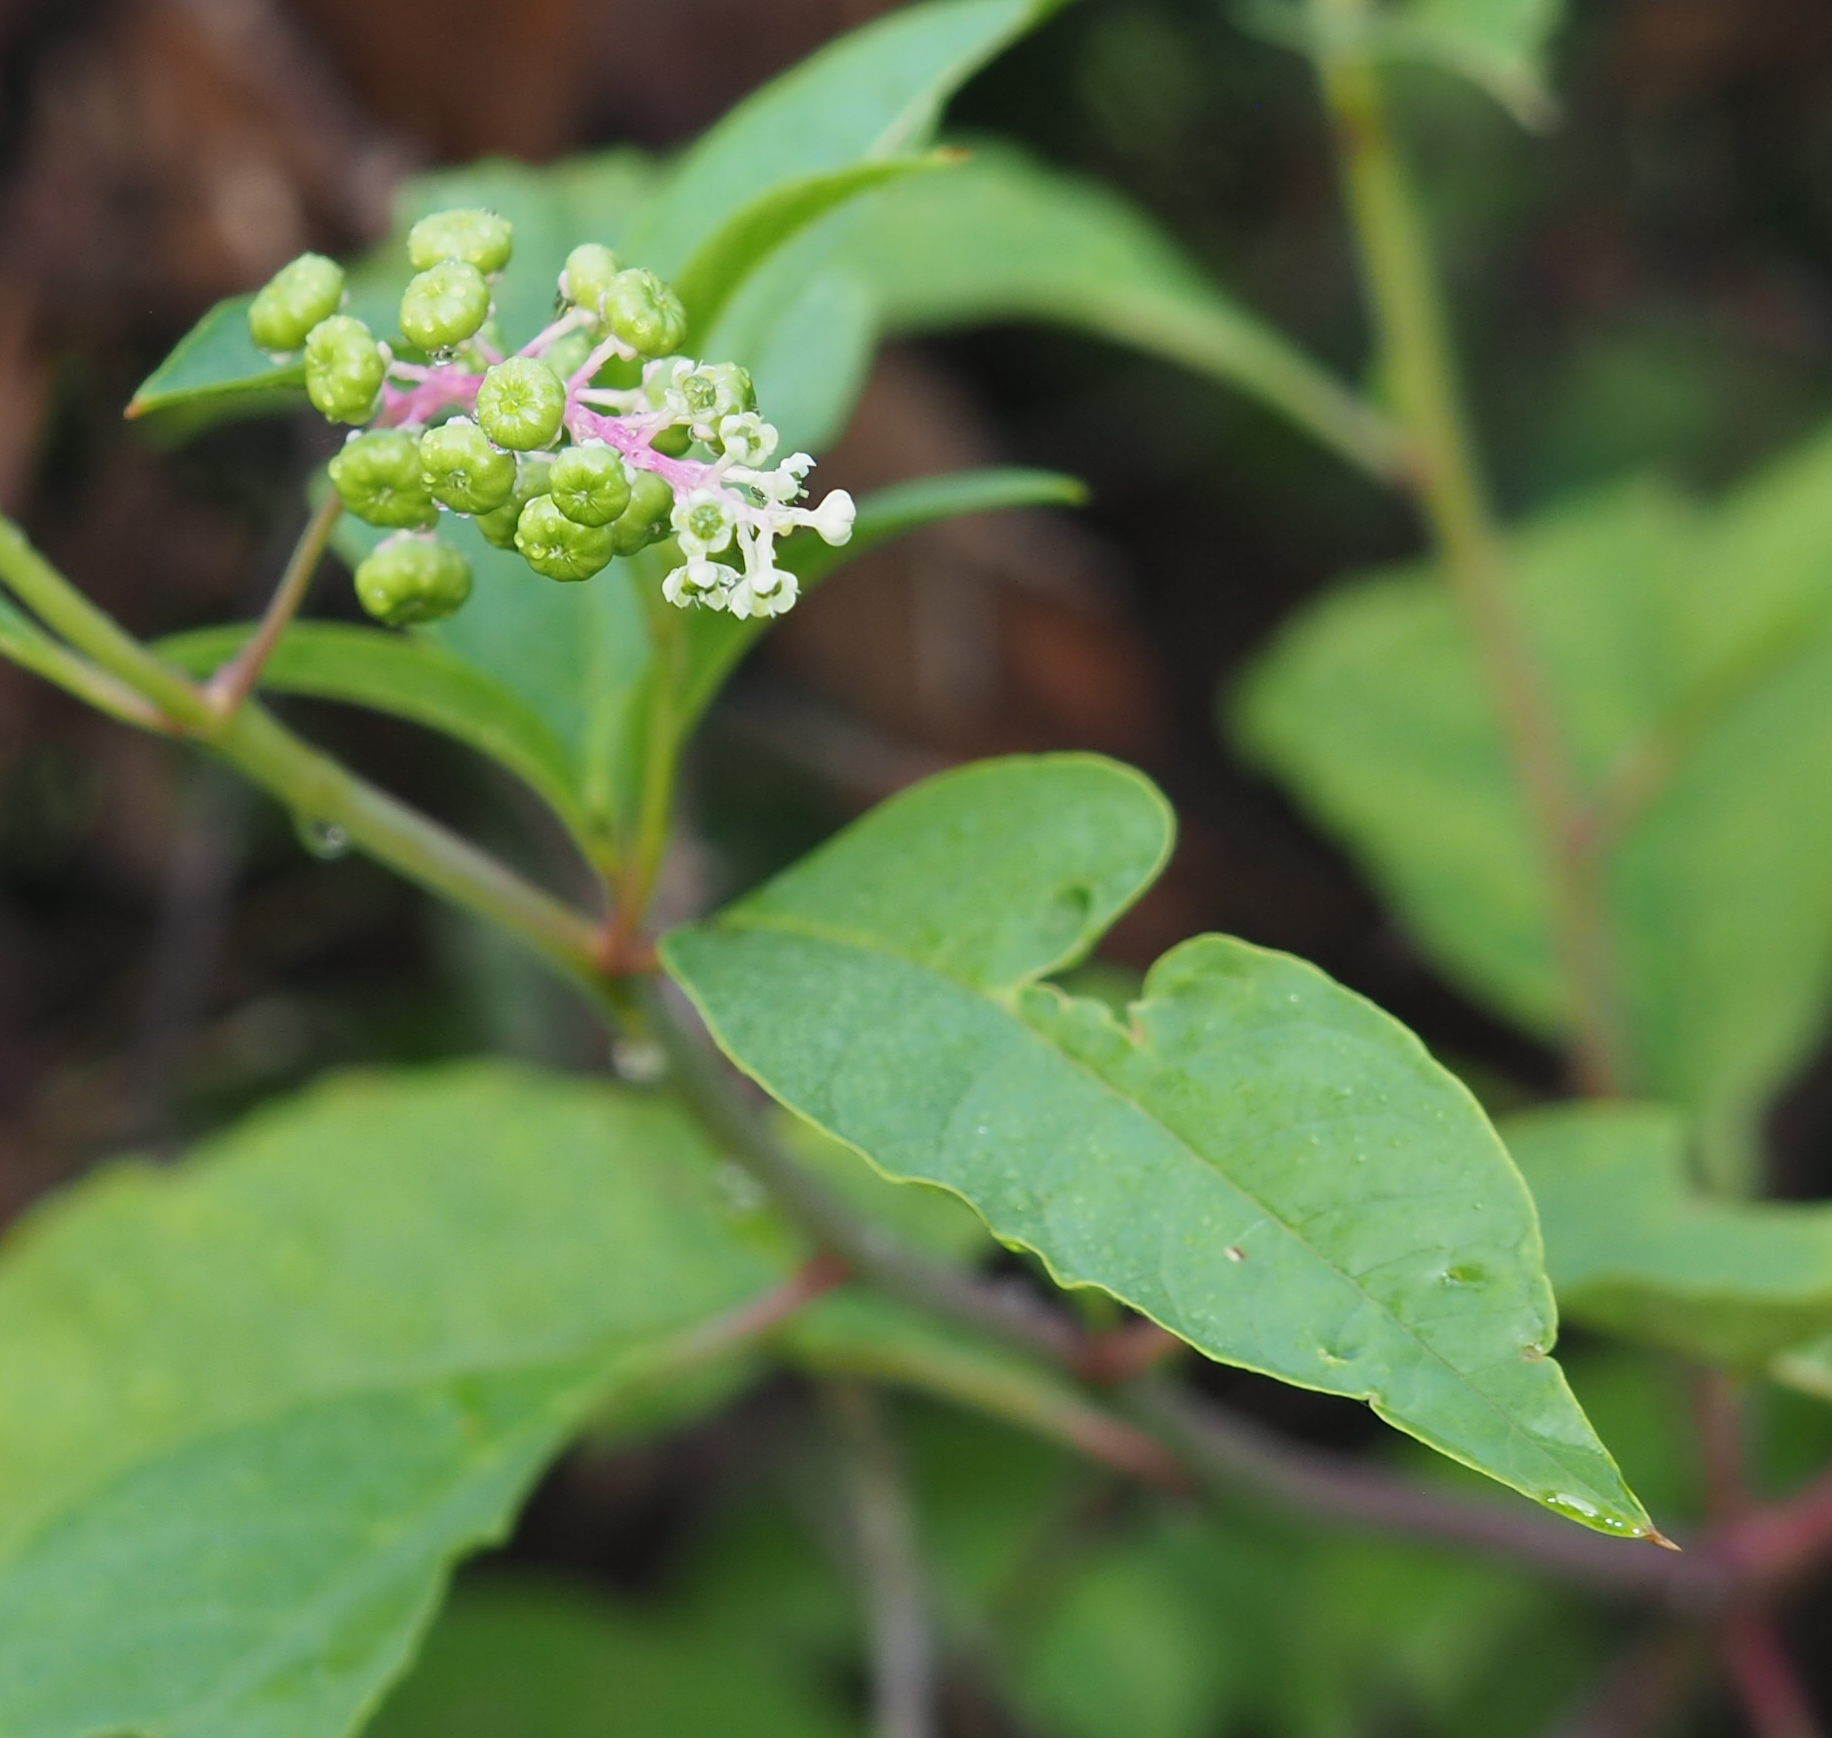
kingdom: Plantae
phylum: Tracheophyta
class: Magnoliopsida
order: Caryophyllales
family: Phytolaccaceae
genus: Phytolacca
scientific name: Phytolacca americana
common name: American pokeweed
